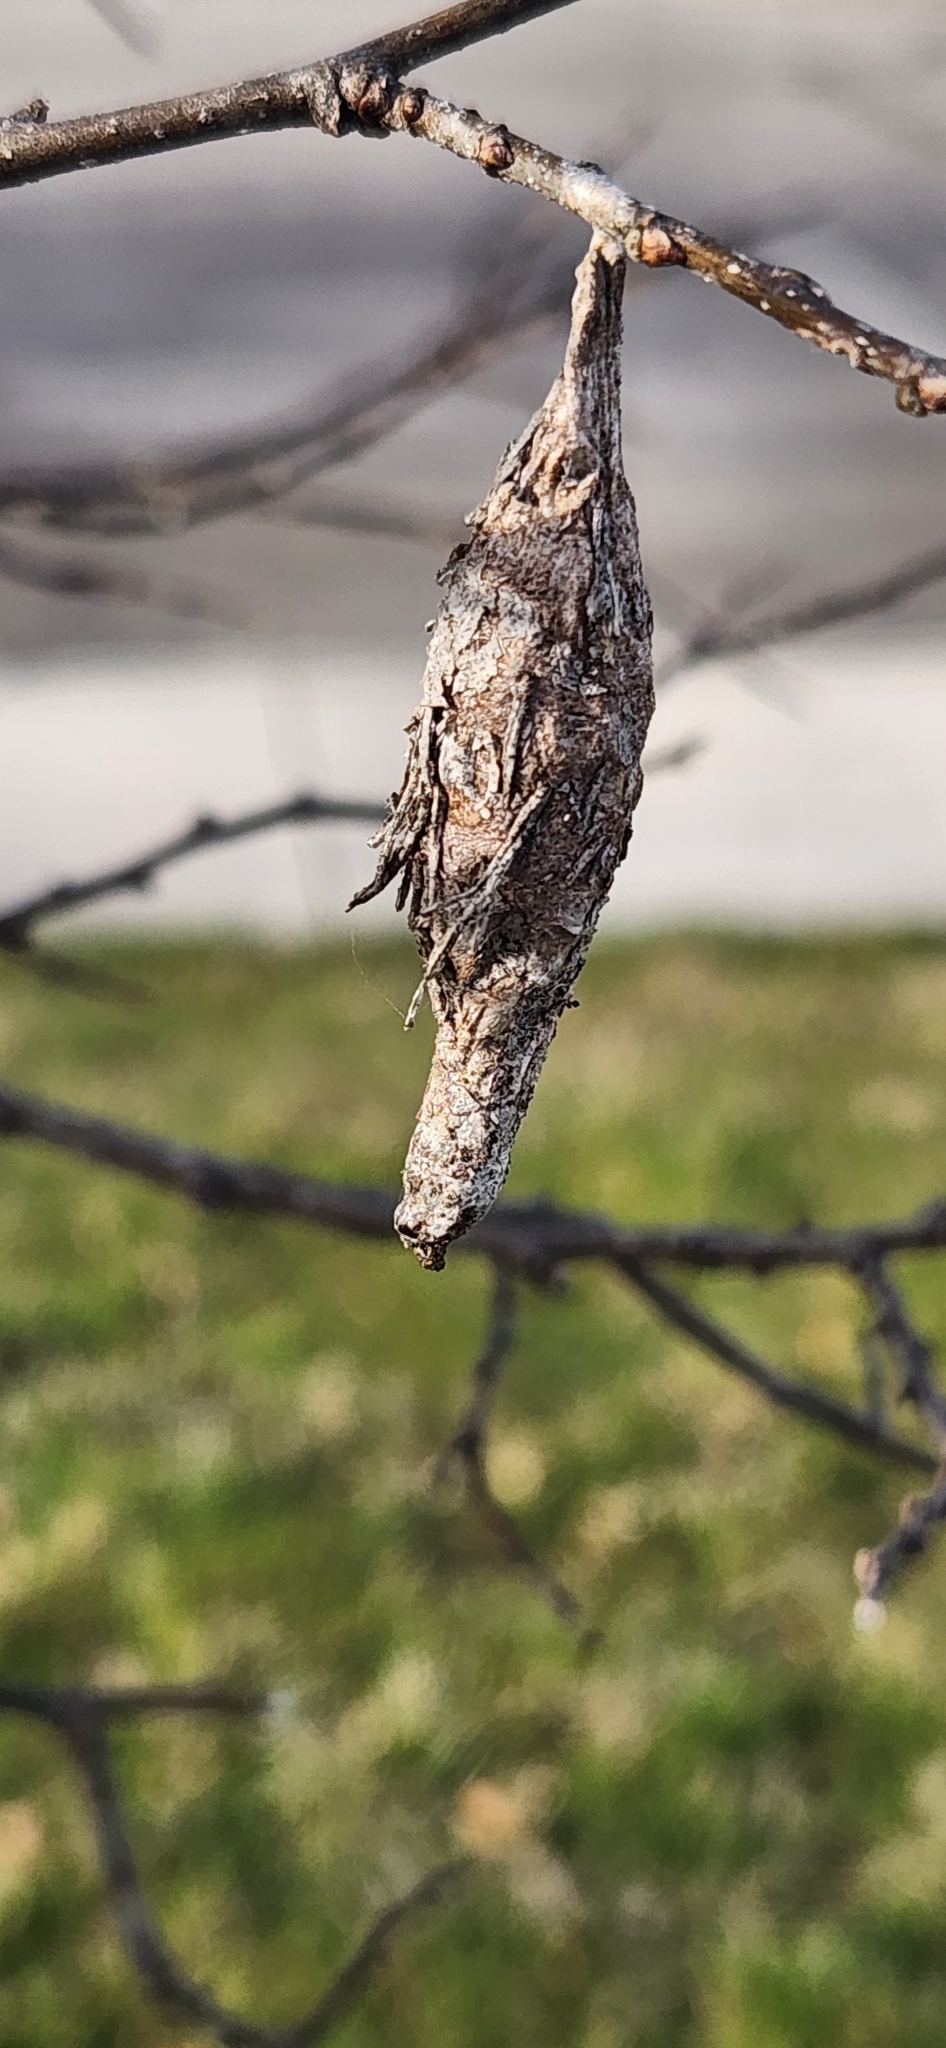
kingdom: Animalia
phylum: Arthropoda
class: Insecta
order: Lepidoptera
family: Psychidae
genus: Thyridopteryx
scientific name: Thyridopteryx ephemeraeformis
